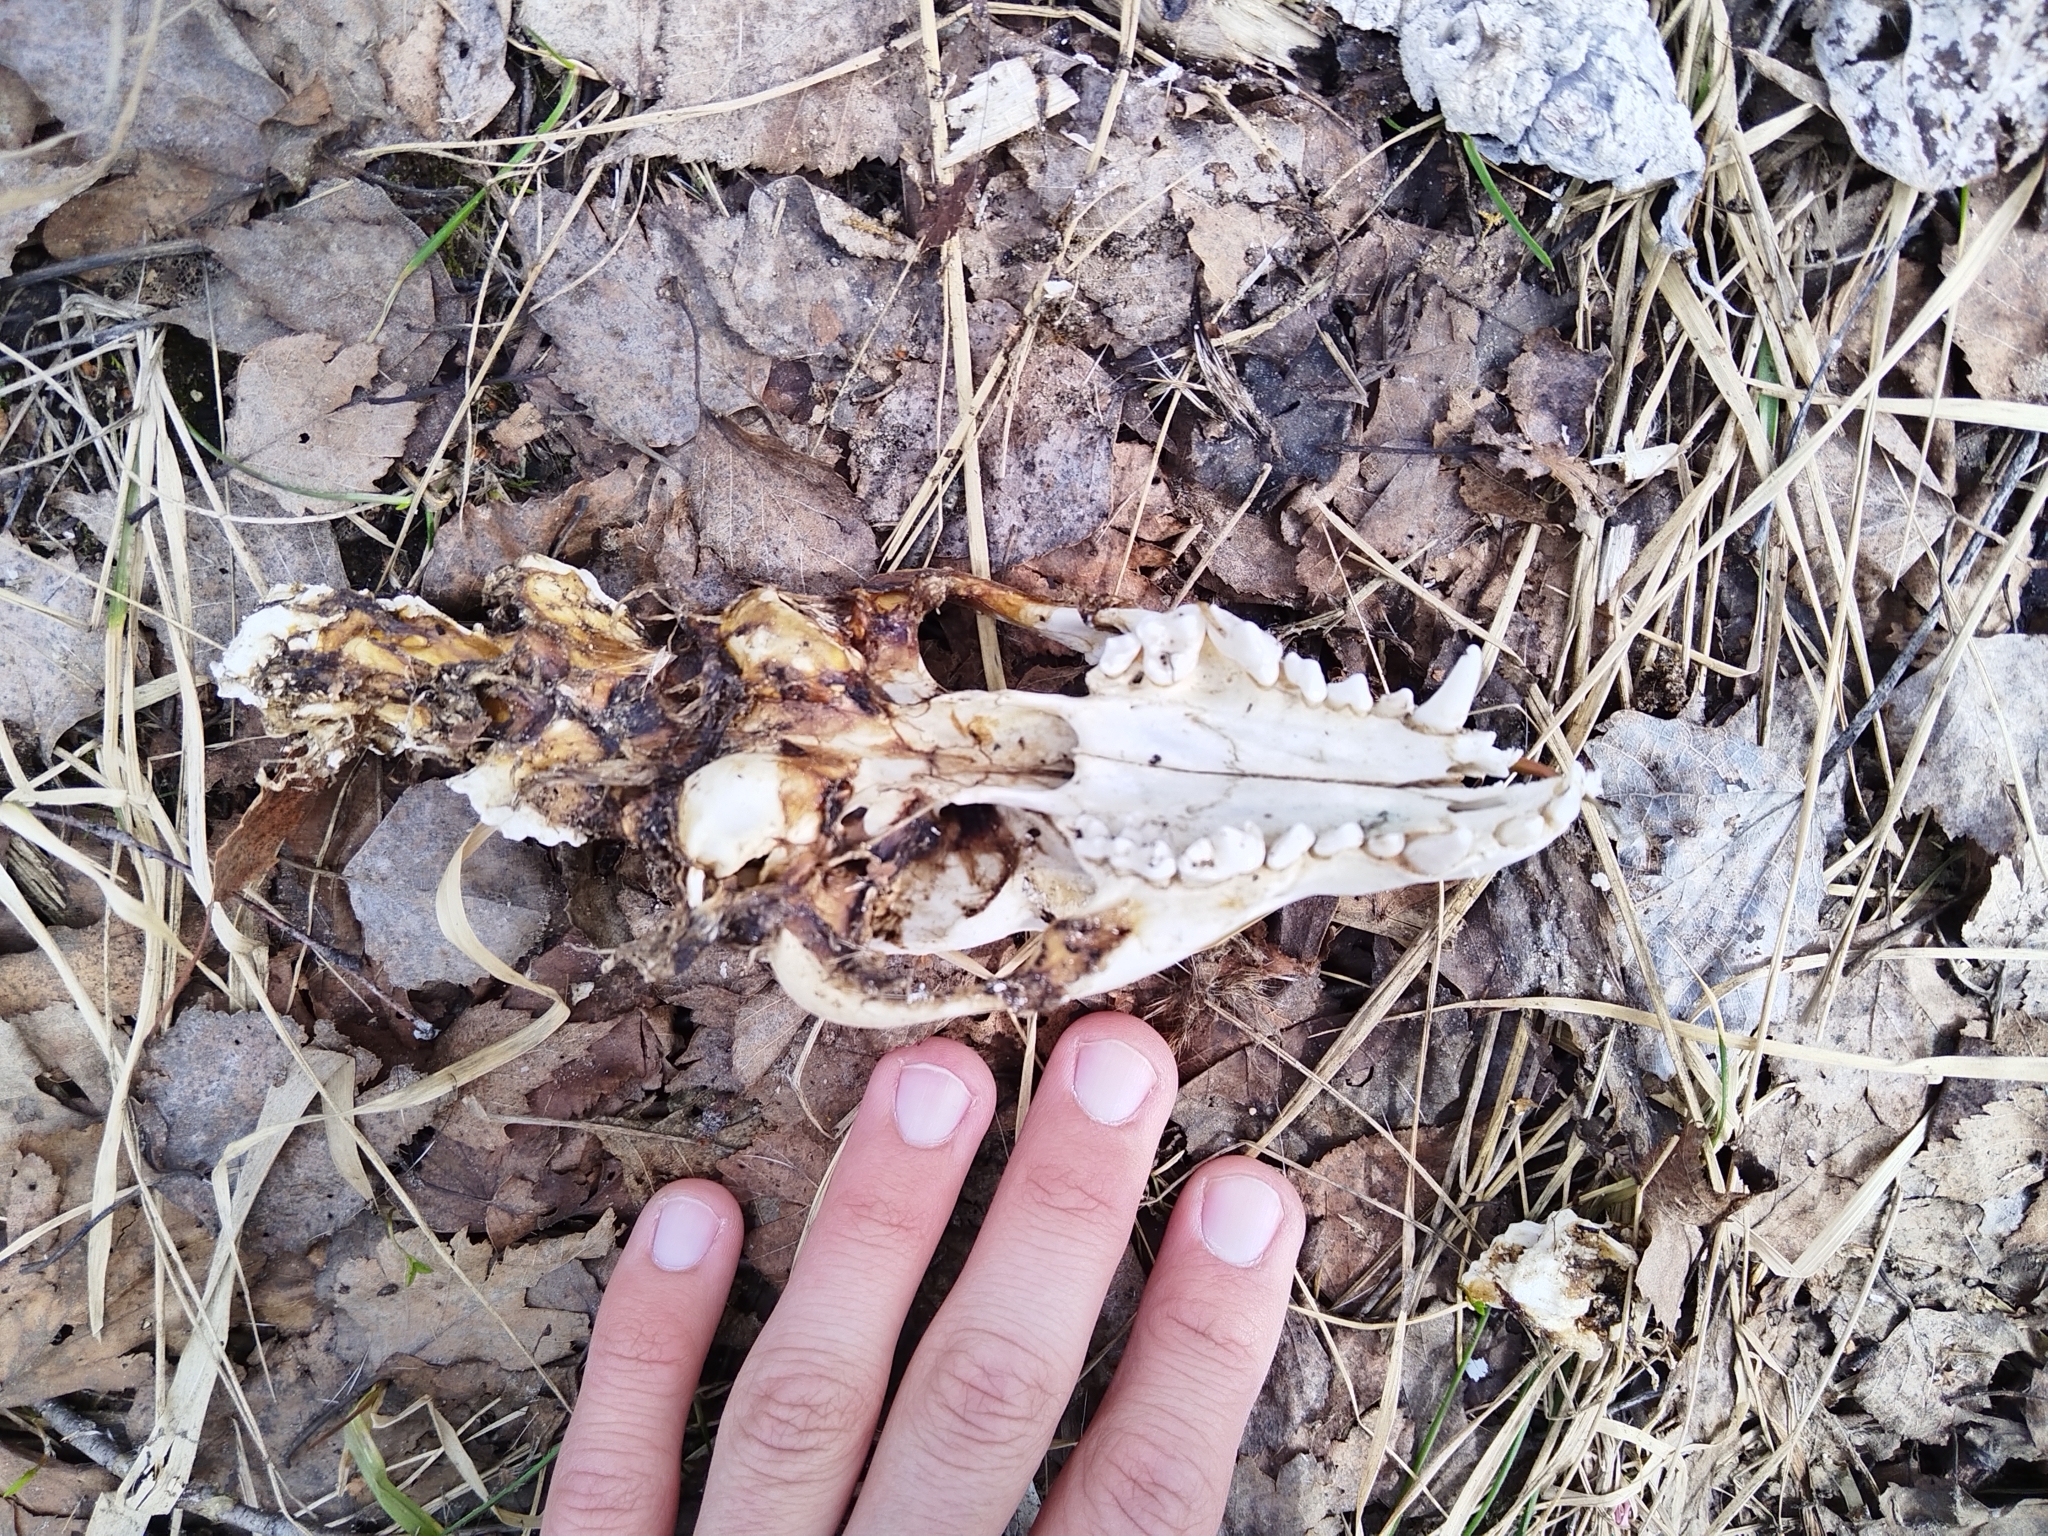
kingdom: Animalia
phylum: Chordata
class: Mammalia
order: Carnivora
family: Canidae
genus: Nyctereutes
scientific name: Nyctereutes procyonoides
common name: Raccoon dog
